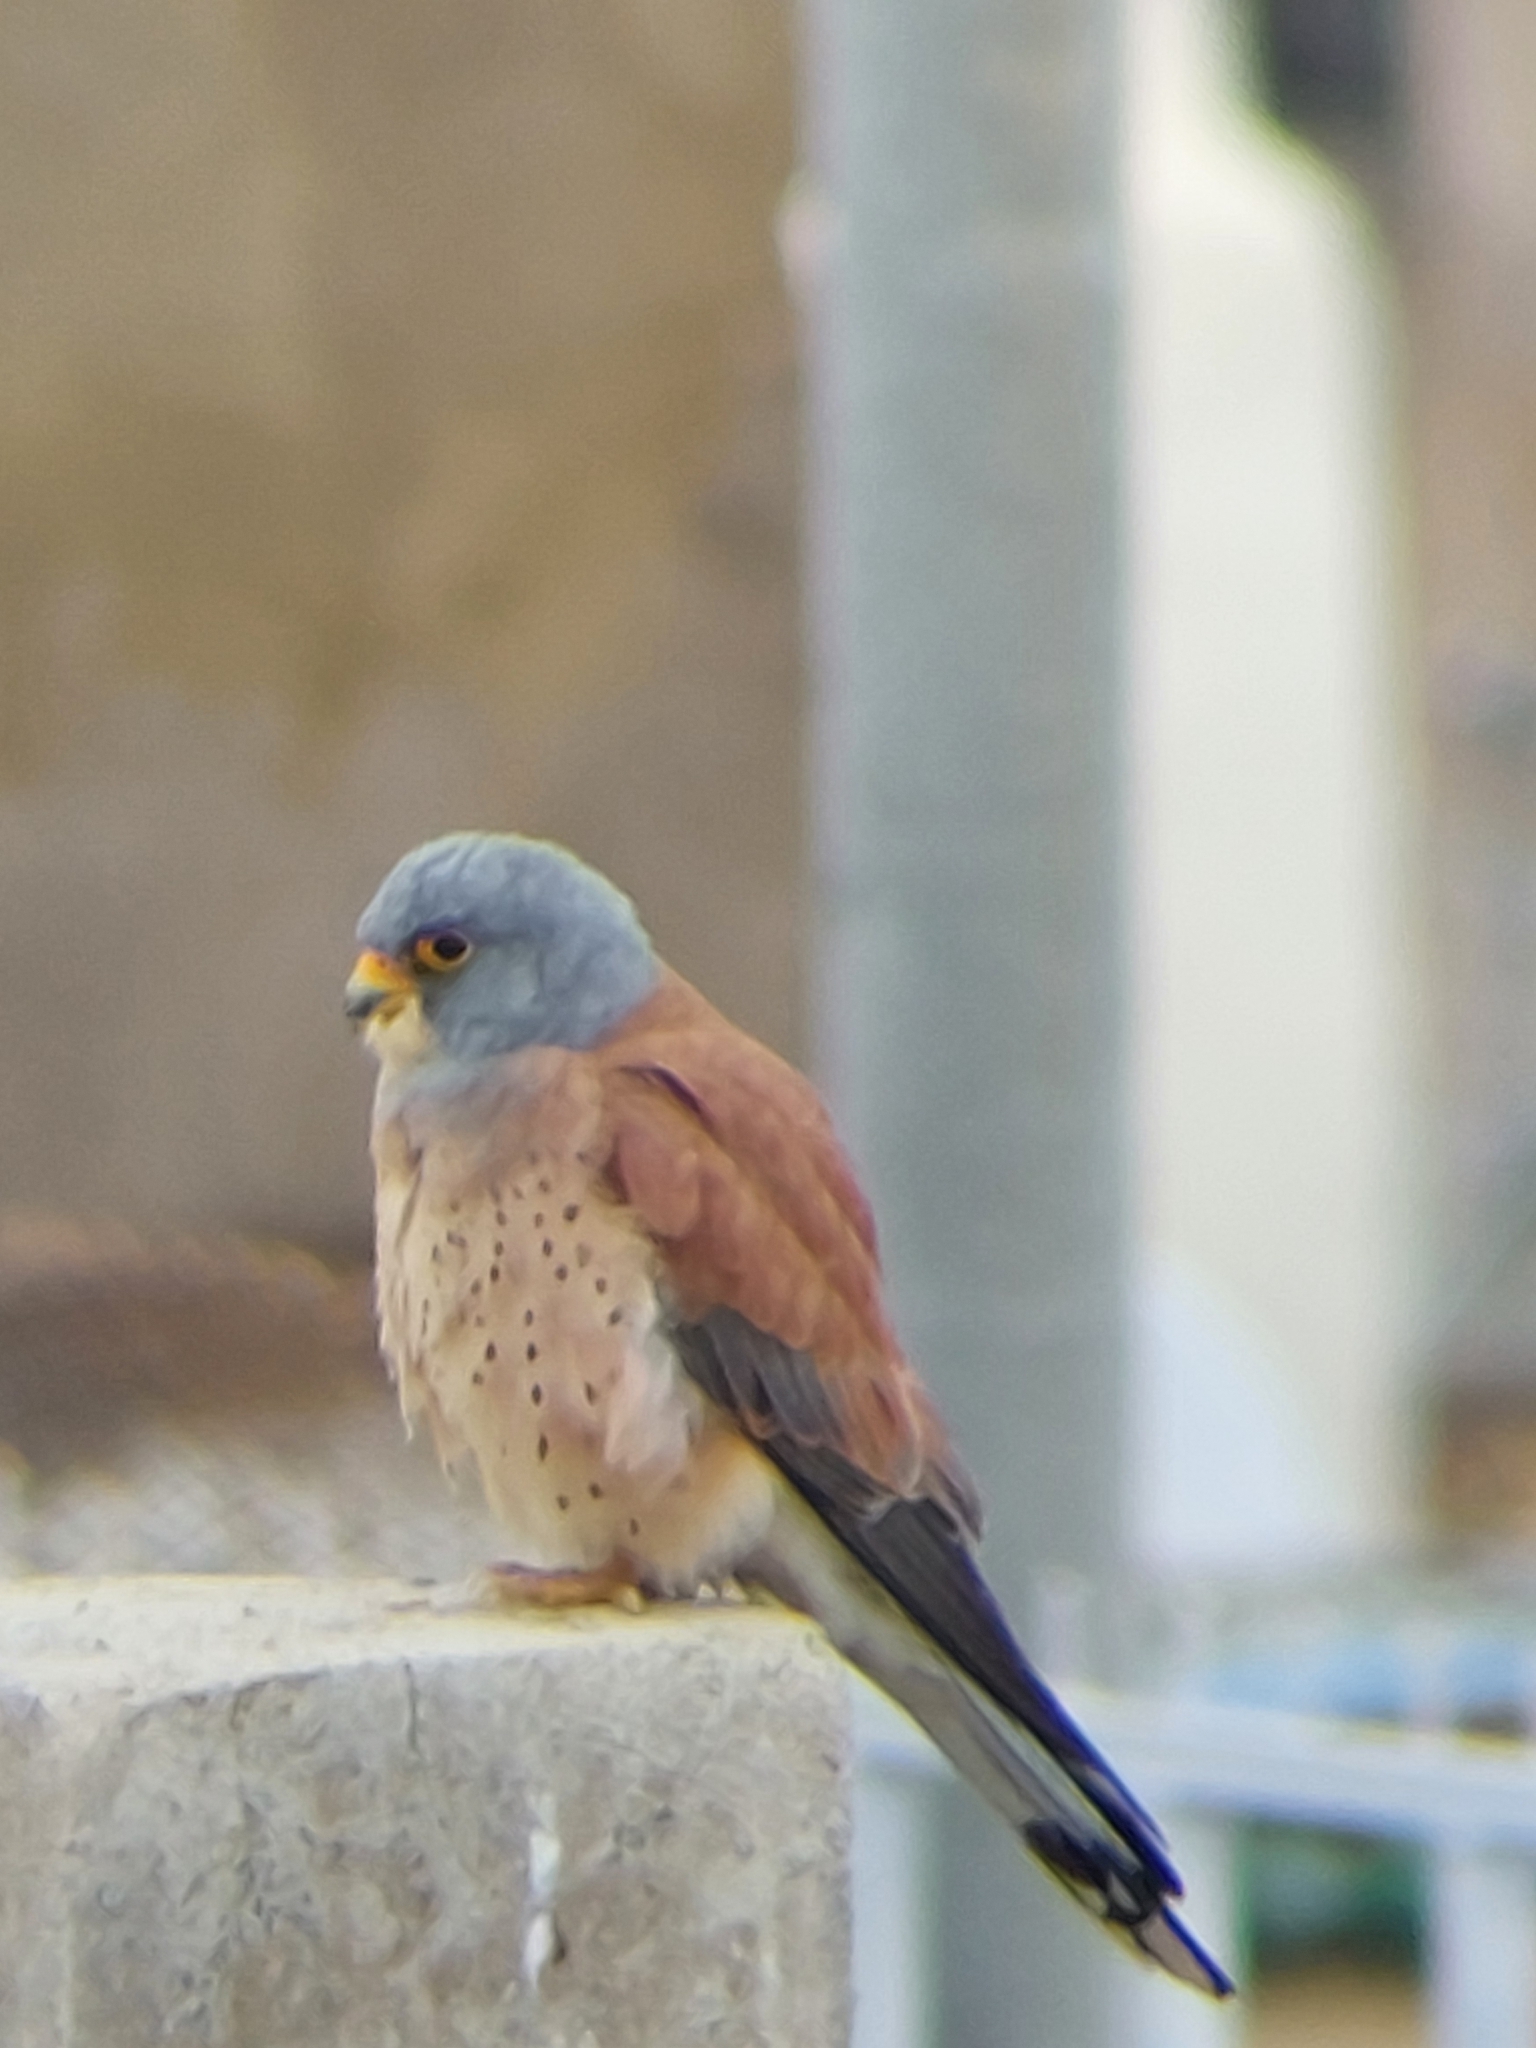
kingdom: Animalia
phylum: Chordata
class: Aves
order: Falconiformes
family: Falconidae
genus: Falco
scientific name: Falco naumanni
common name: Lesser kestrel
